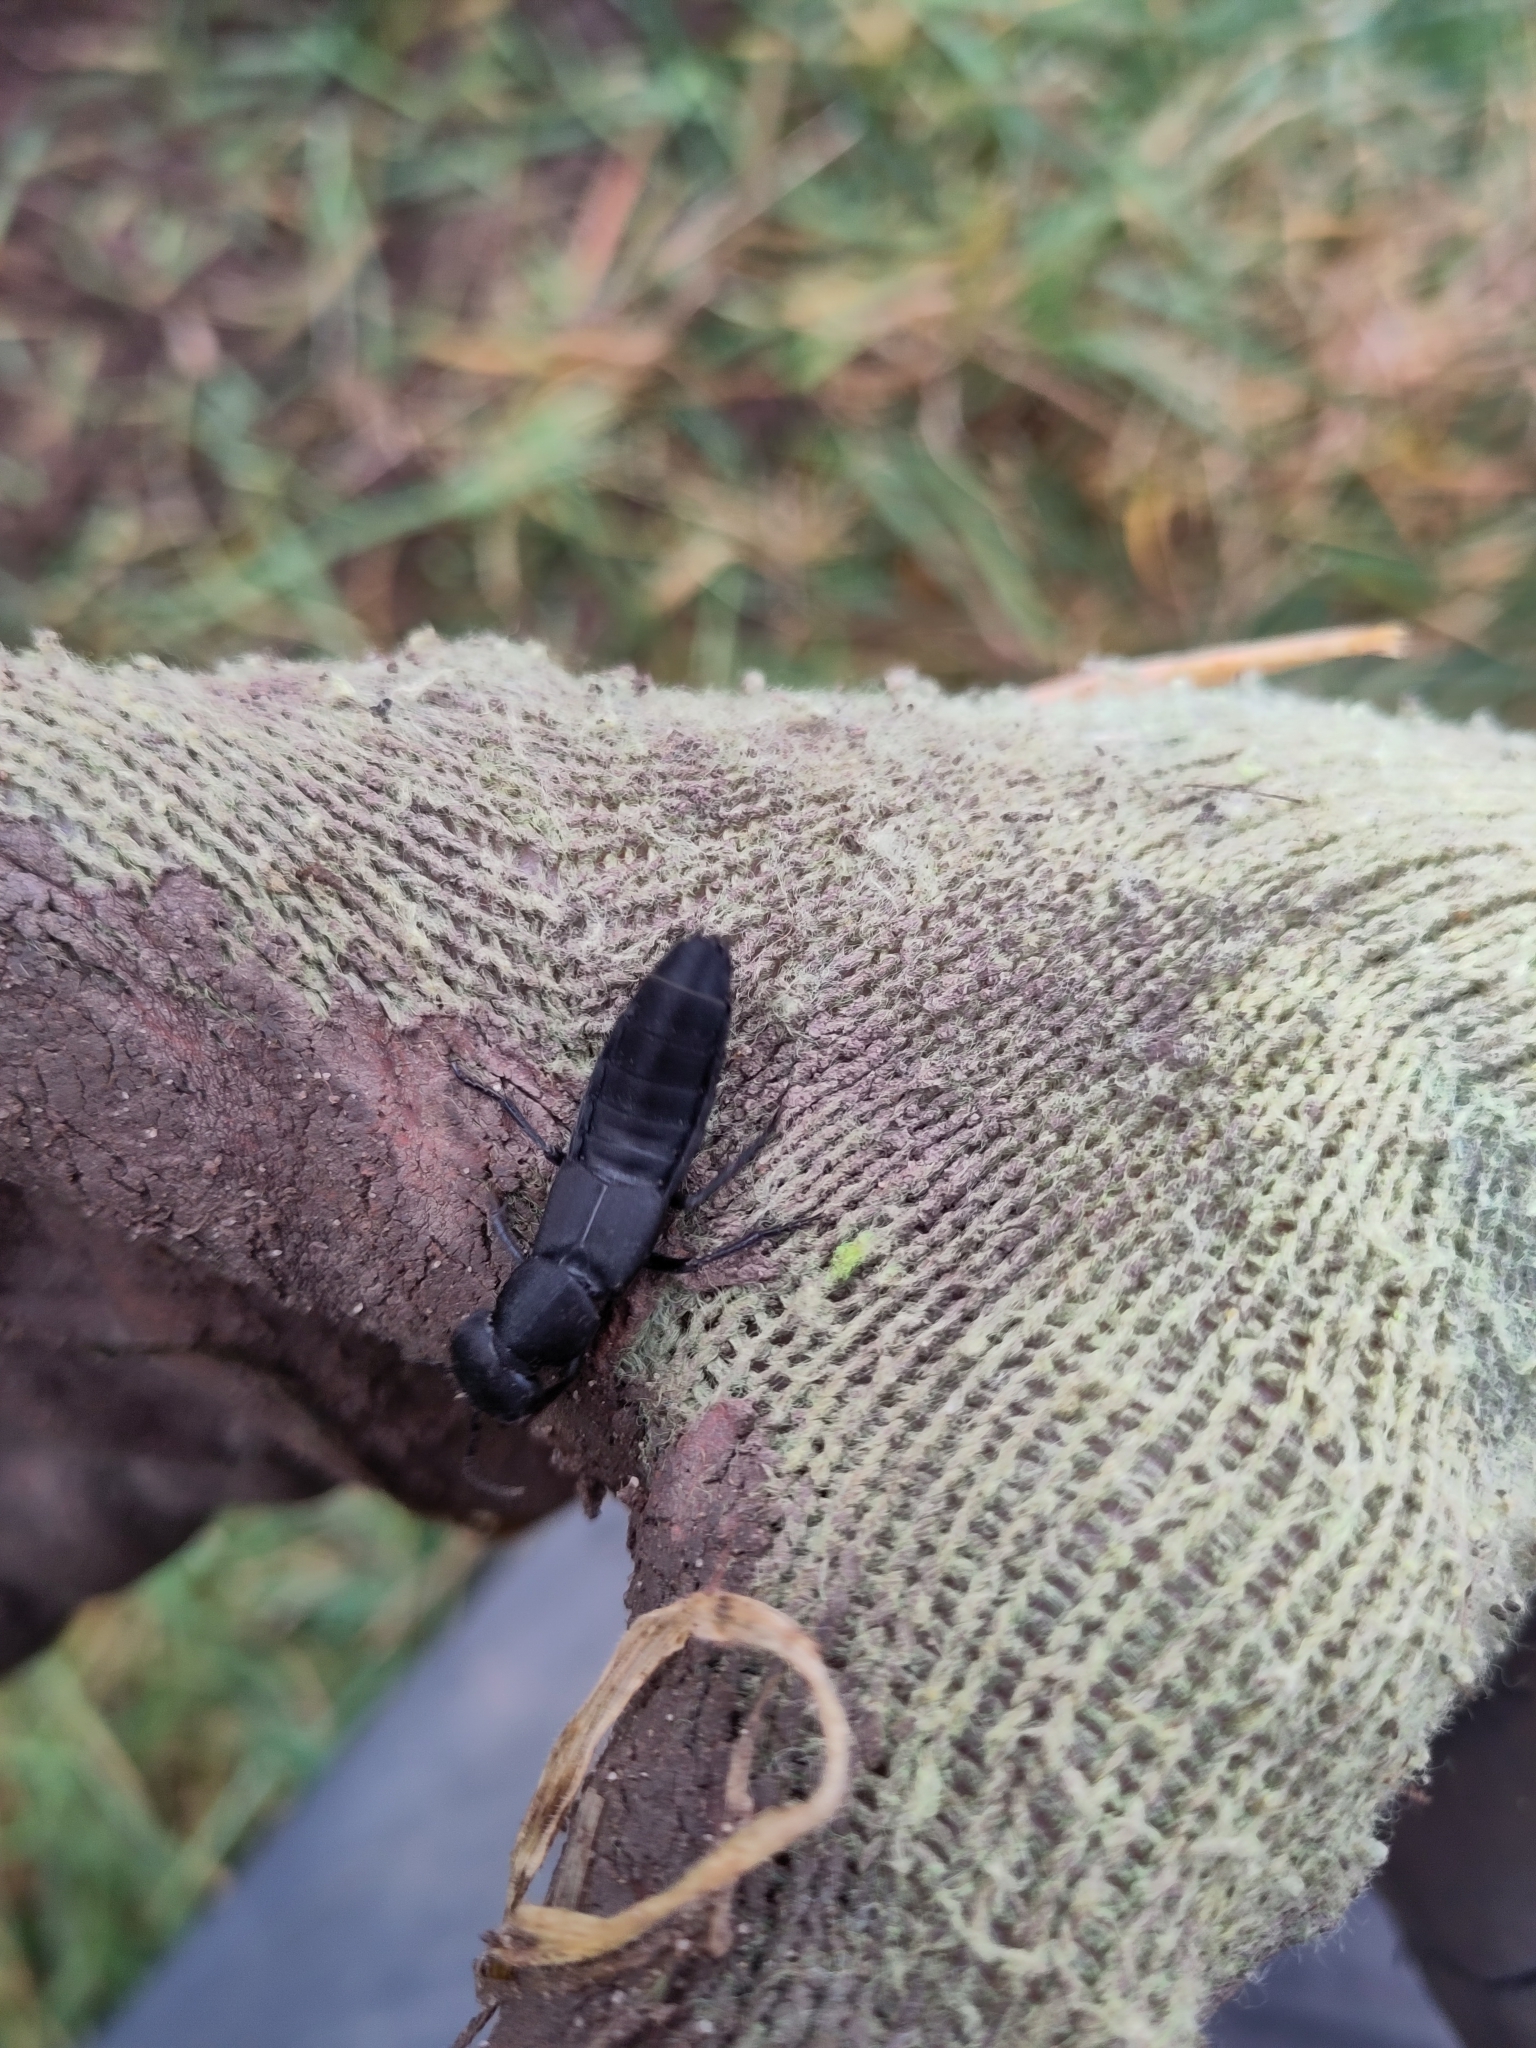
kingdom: Animalia
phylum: Arthropoda
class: Insecta
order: Coleoptera
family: Staphylinidae
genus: Ocypus
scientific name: Ocypus olens
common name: Devil's coach-horse
